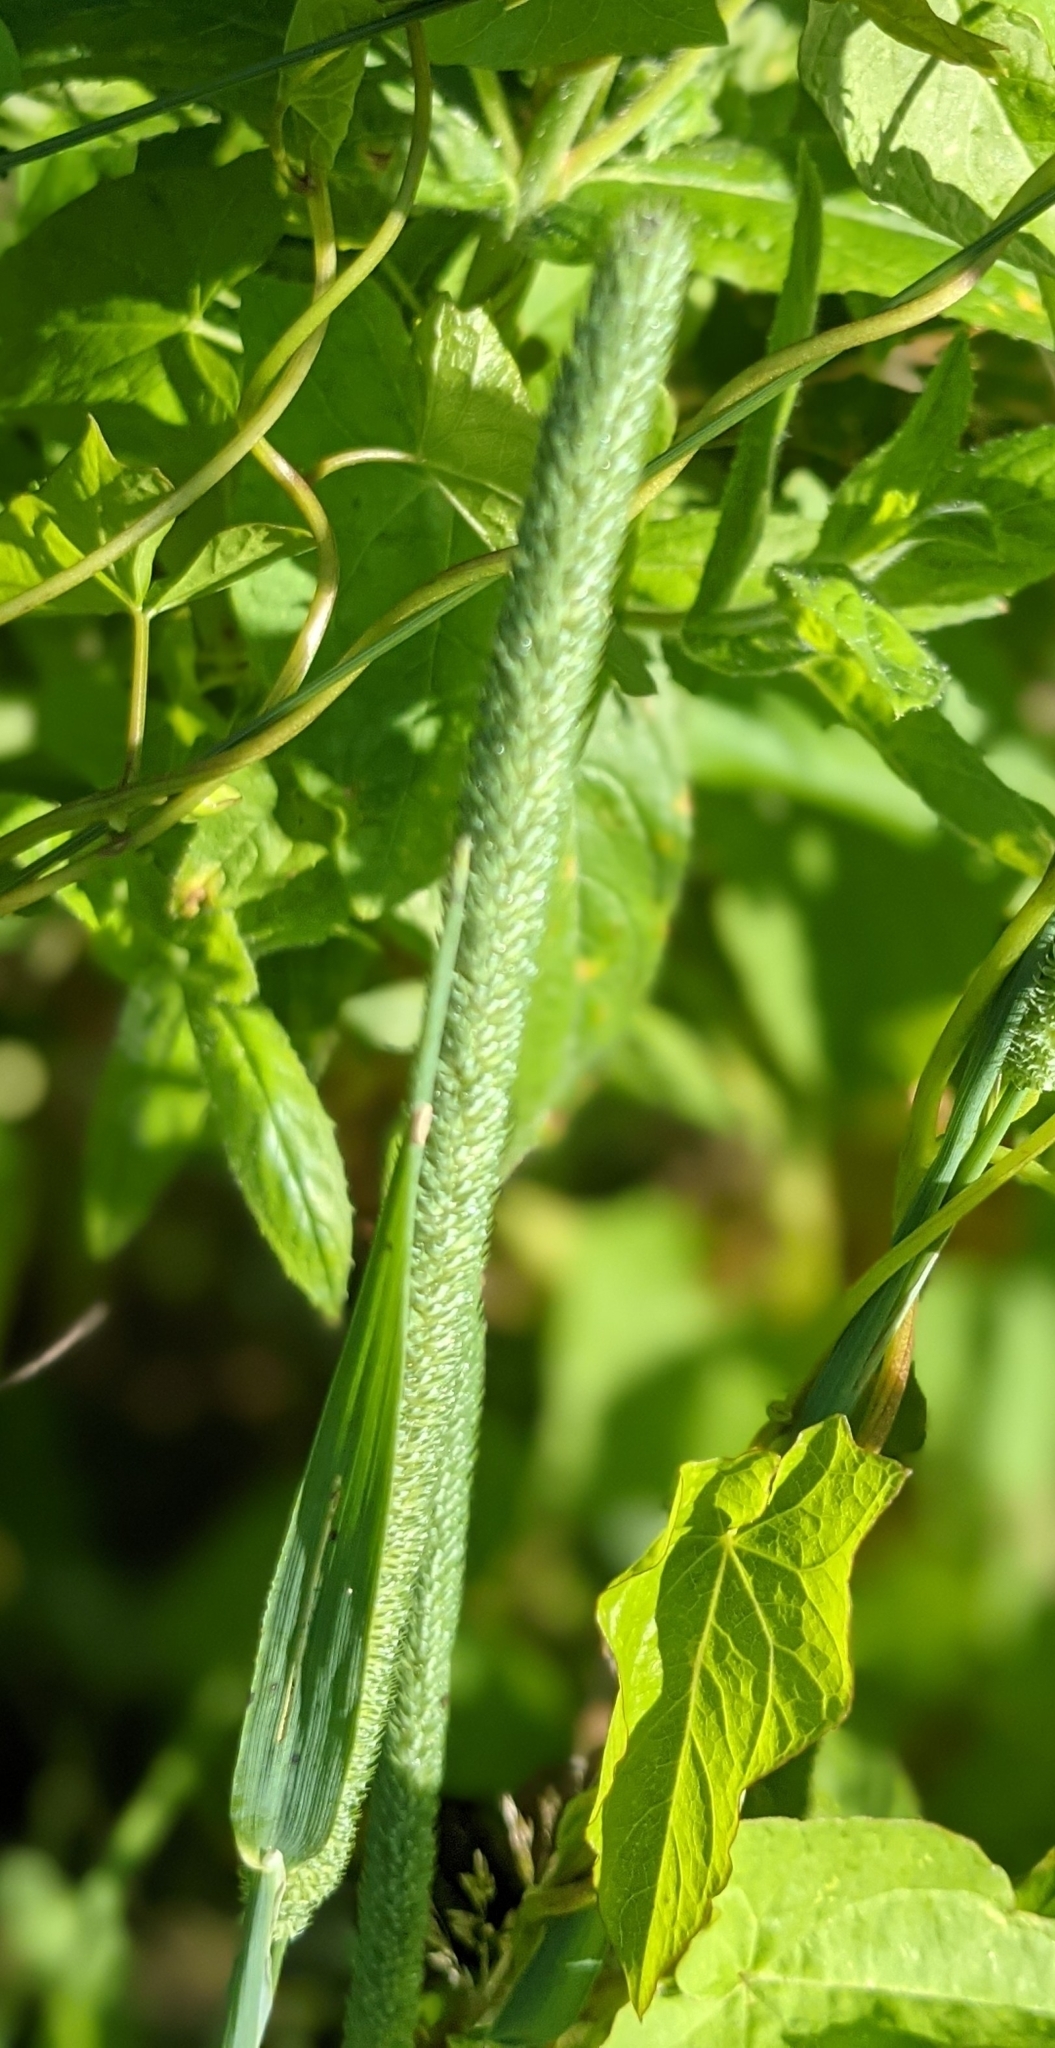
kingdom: Plantae
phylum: Tracheophyta
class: Liliopsida
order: Poales
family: Poaceae
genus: Phleum
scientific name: Phleum pratense
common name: Timothy grass
